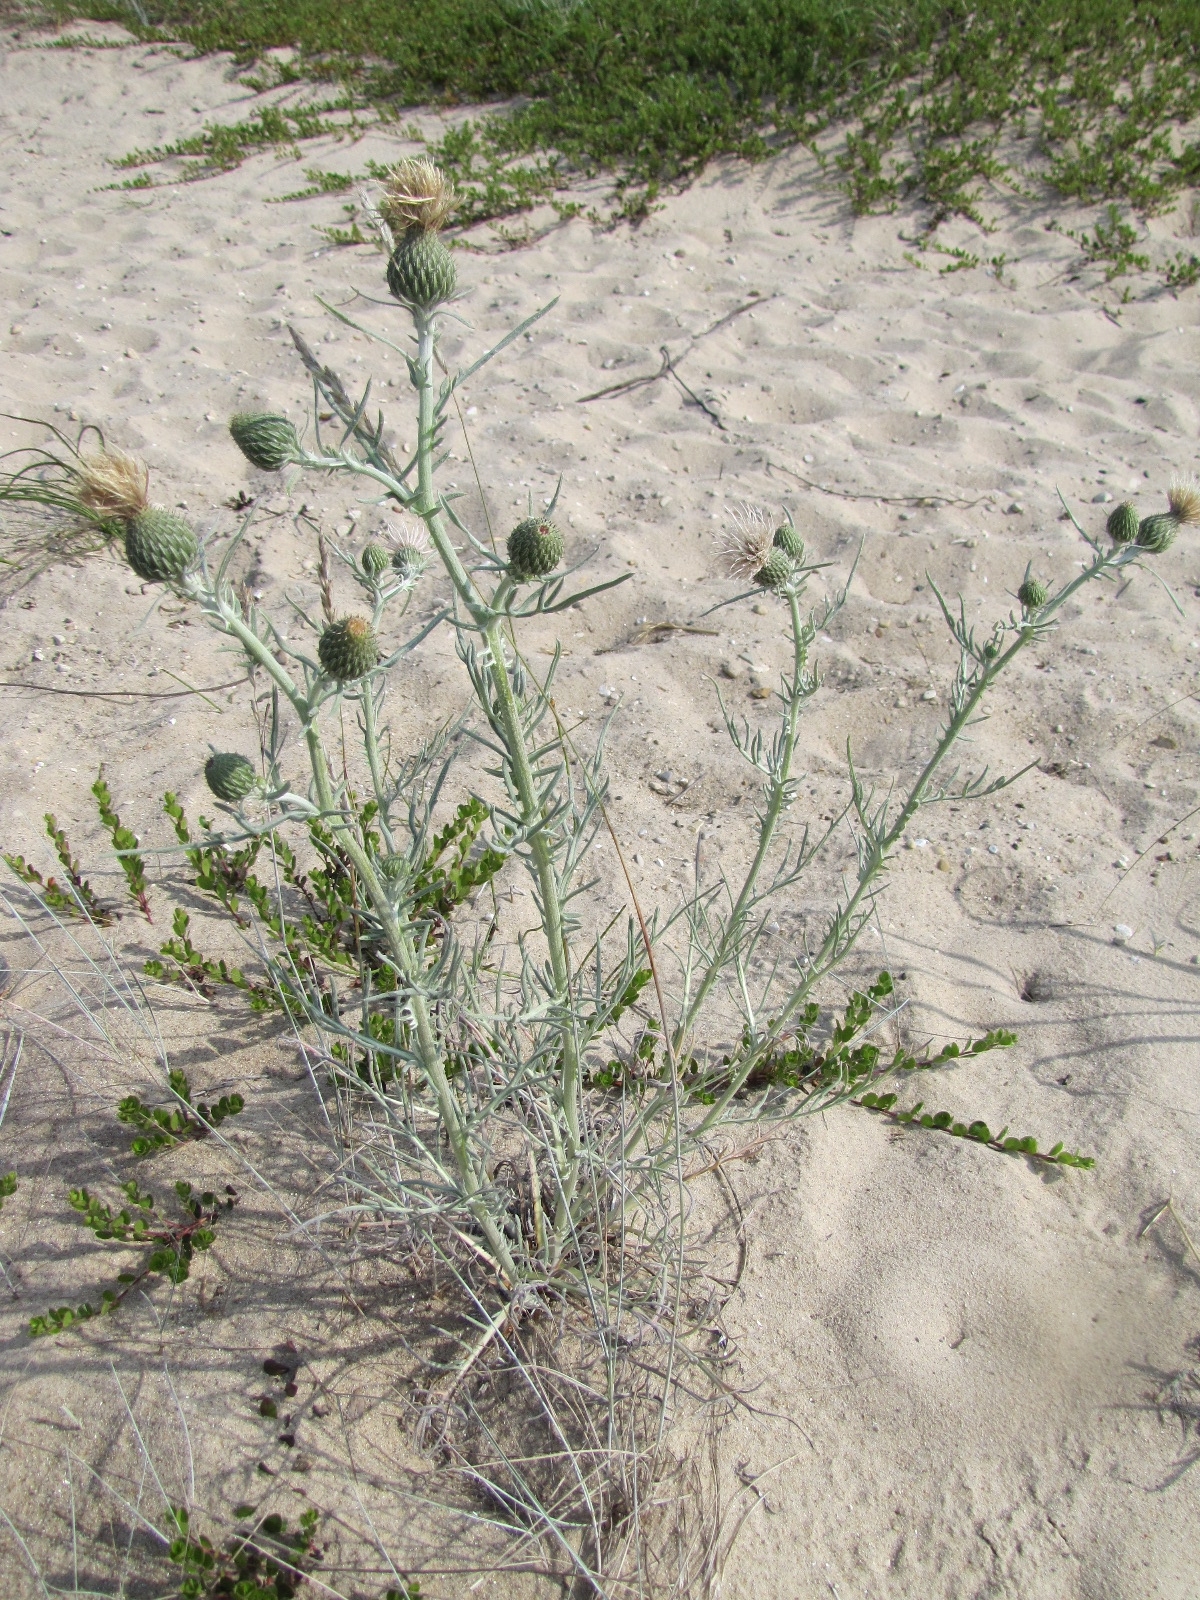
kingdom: Plantae
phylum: Tracheophyta
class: Magnoliopsida
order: Asterales
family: Asteraceae
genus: Cirsium
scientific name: Cirsium pitcheri
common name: Dune thistle
